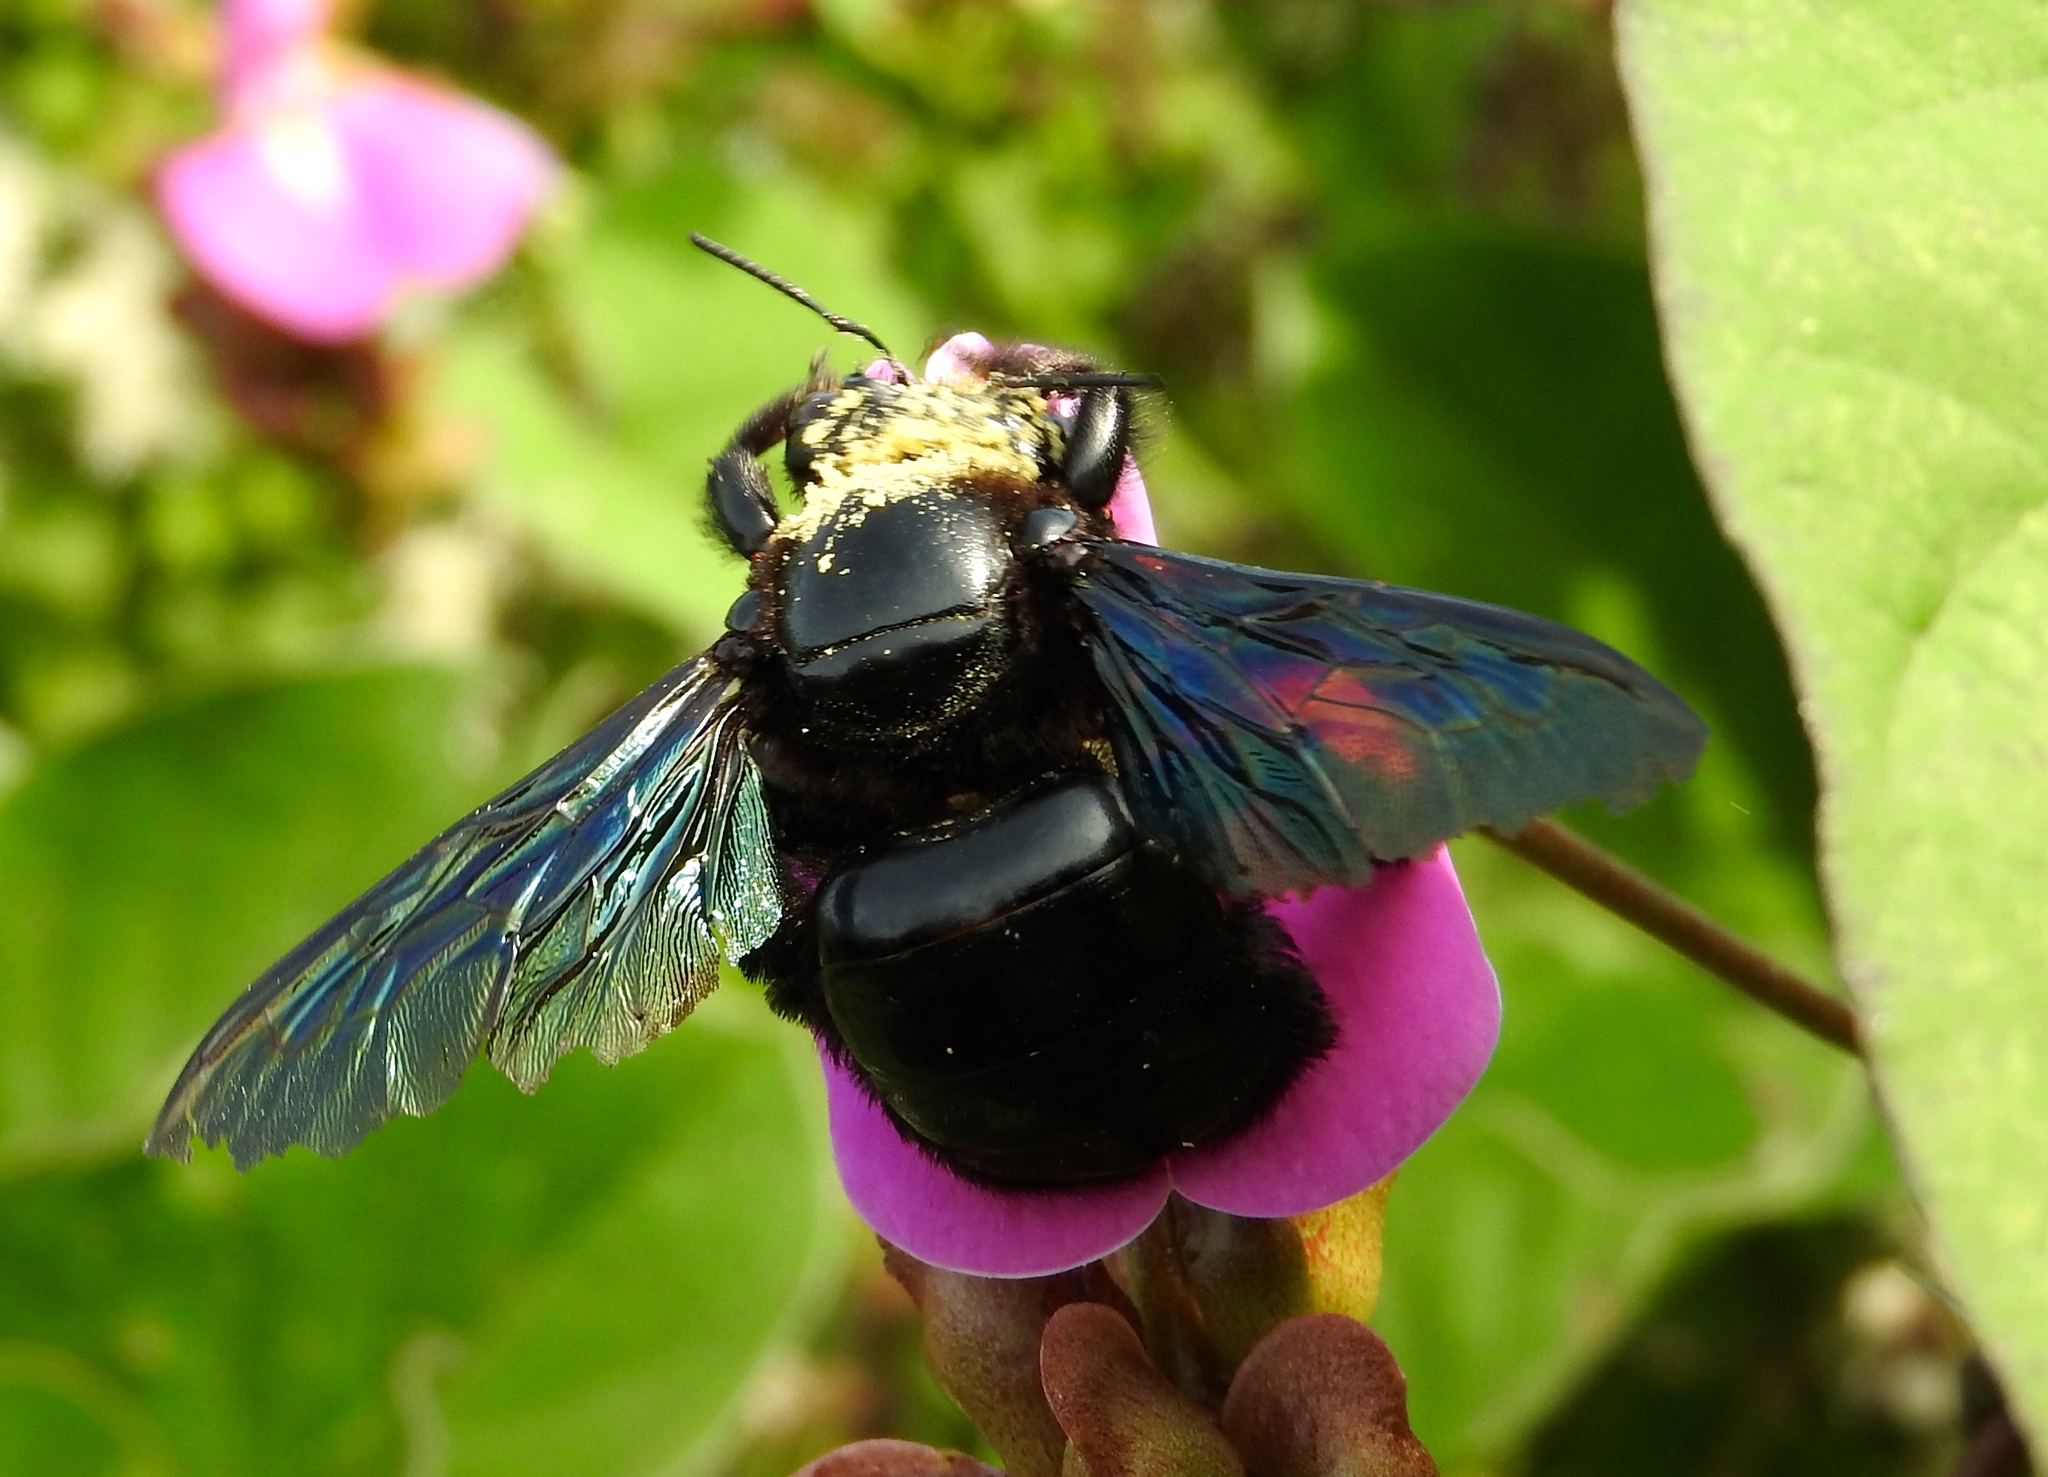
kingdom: Animalia
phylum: Arthropoda
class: Insecta
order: Hymenoptera
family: Apidae
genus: Xylocopa
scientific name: Xylocopa fimbriata
